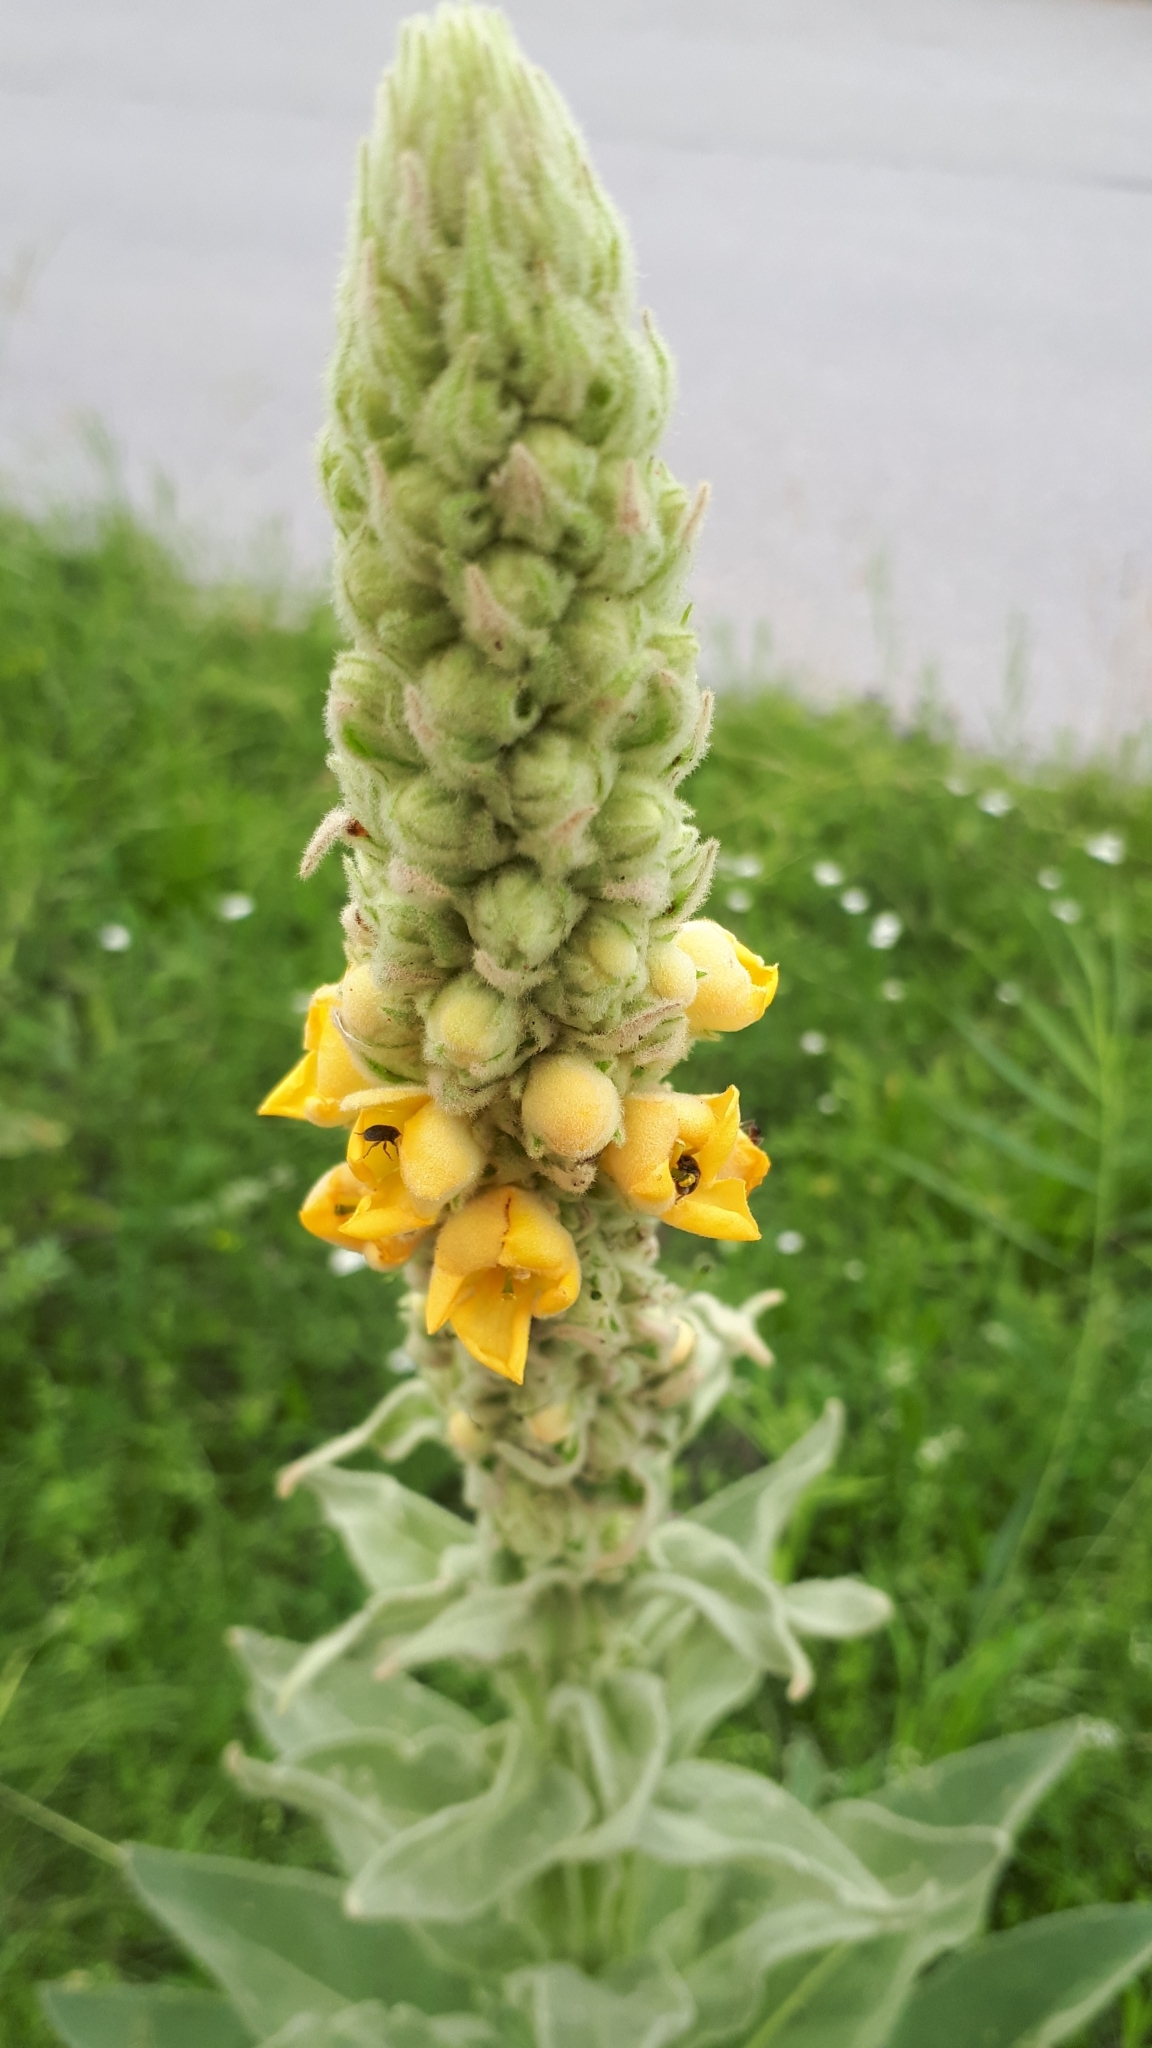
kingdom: Plantae
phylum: Tracheophyta
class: Magnoliopsida
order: Lamiales
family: Scrophulariaceae
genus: Verbascum
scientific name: Verbascum thapsus
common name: Common mullein
